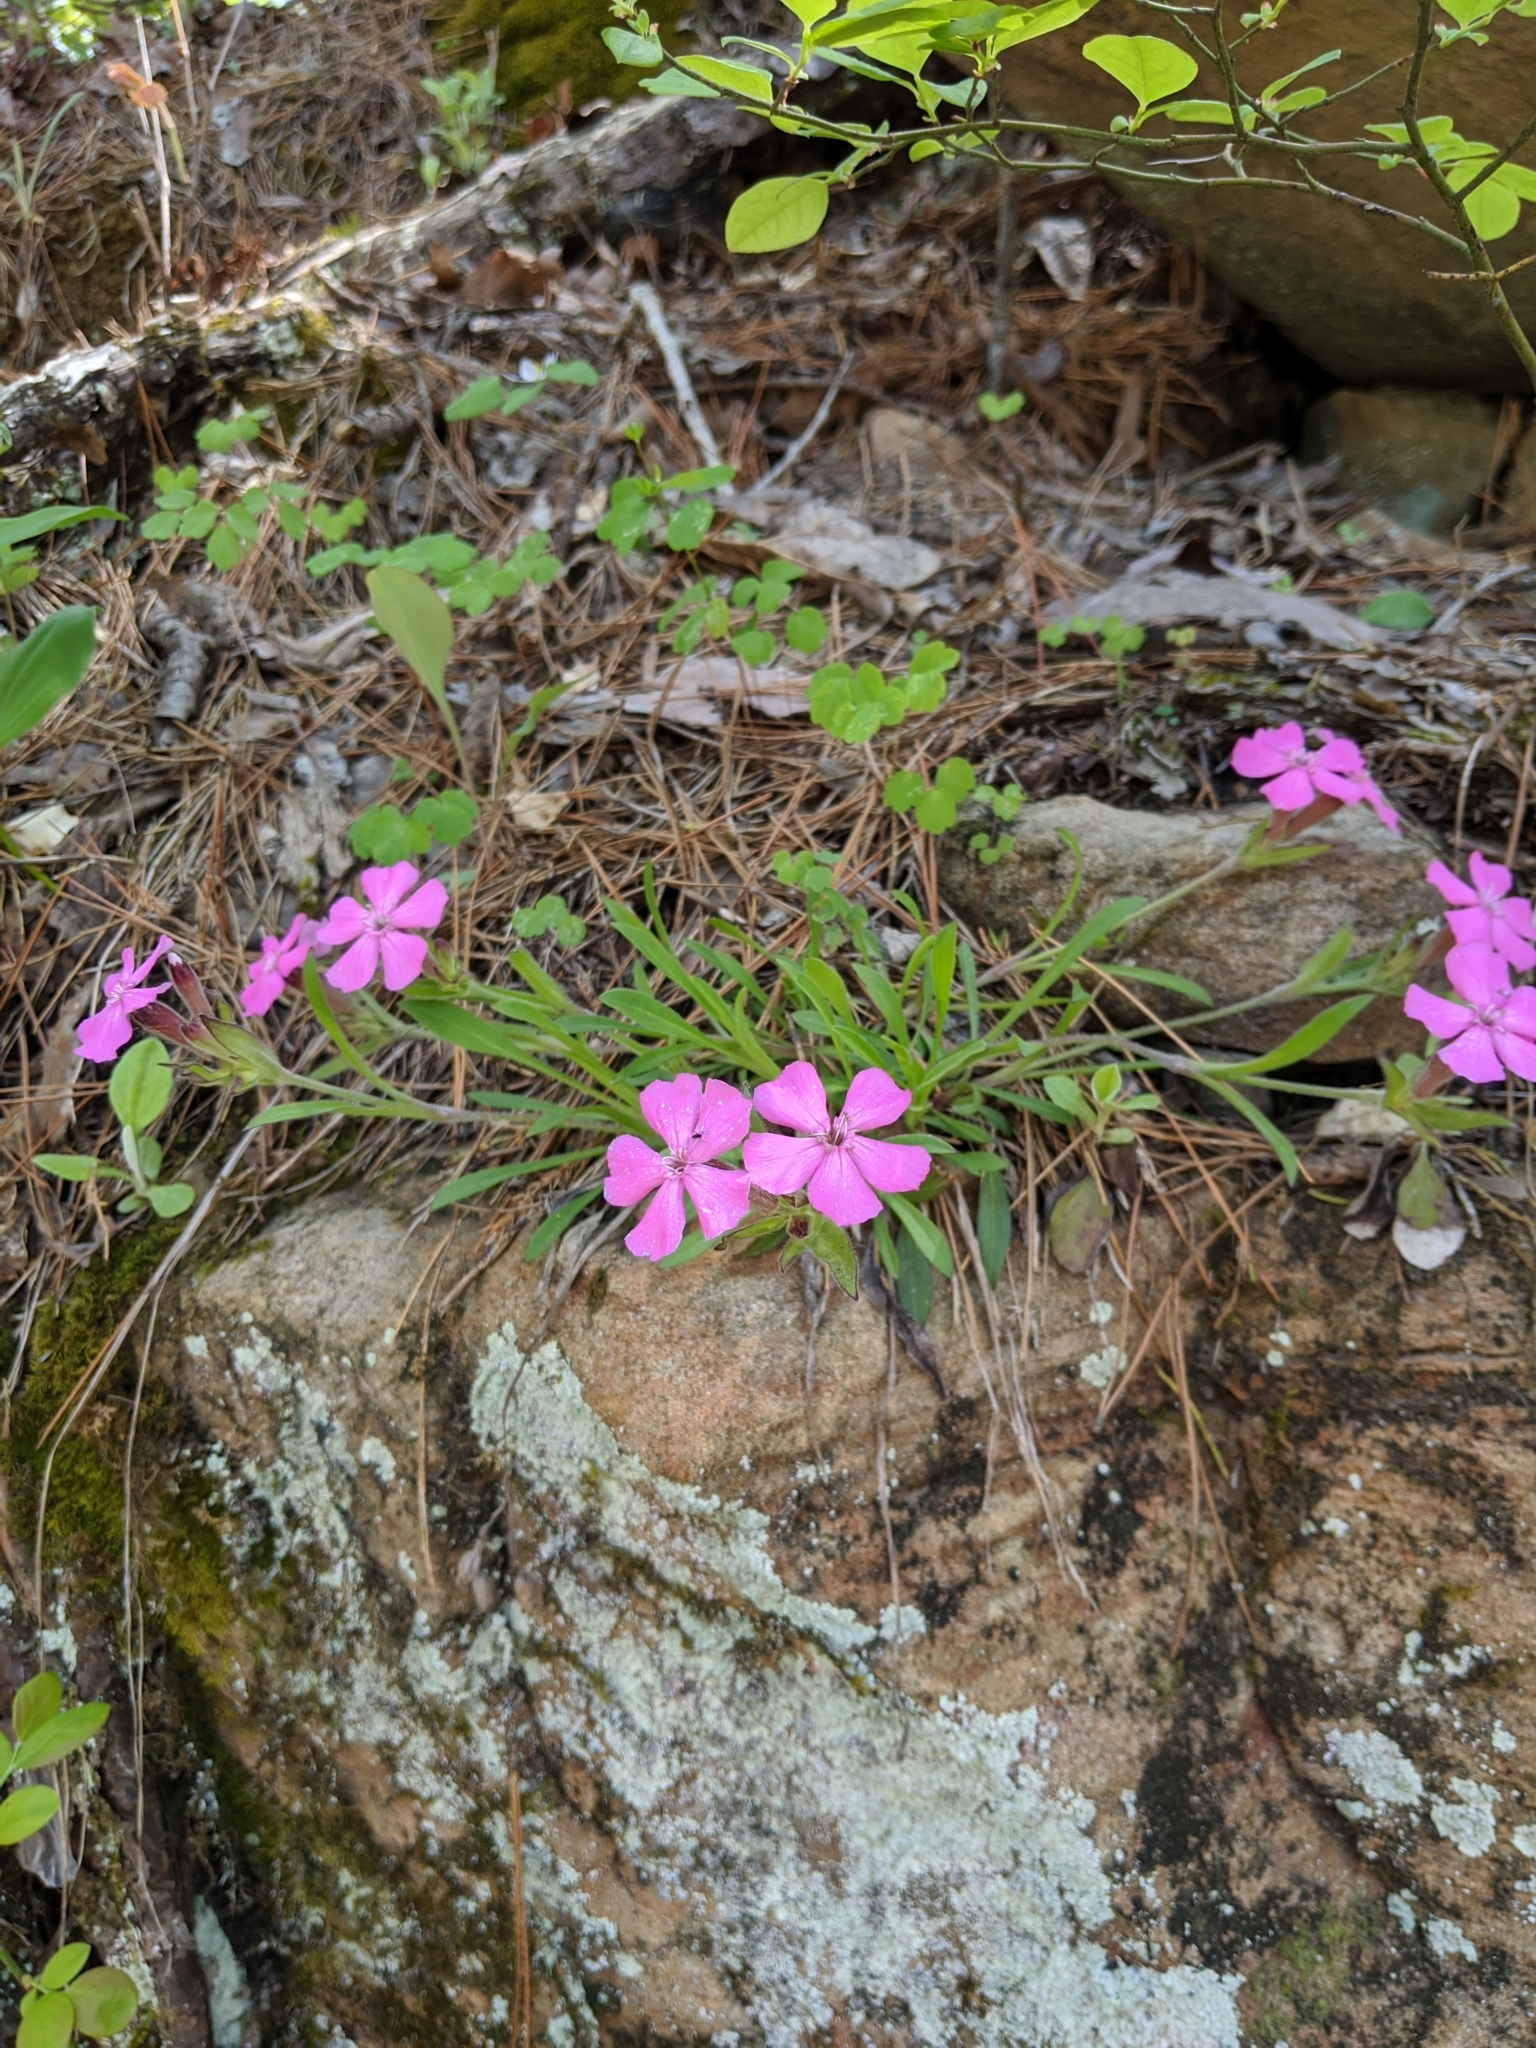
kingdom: Plantae
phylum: Tracheophyta
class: Magnoliopsida
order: Caryophyllales
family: Caryophyllaceae
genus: Silene
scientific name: Silene caroliniana
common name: Sticky catchfly
